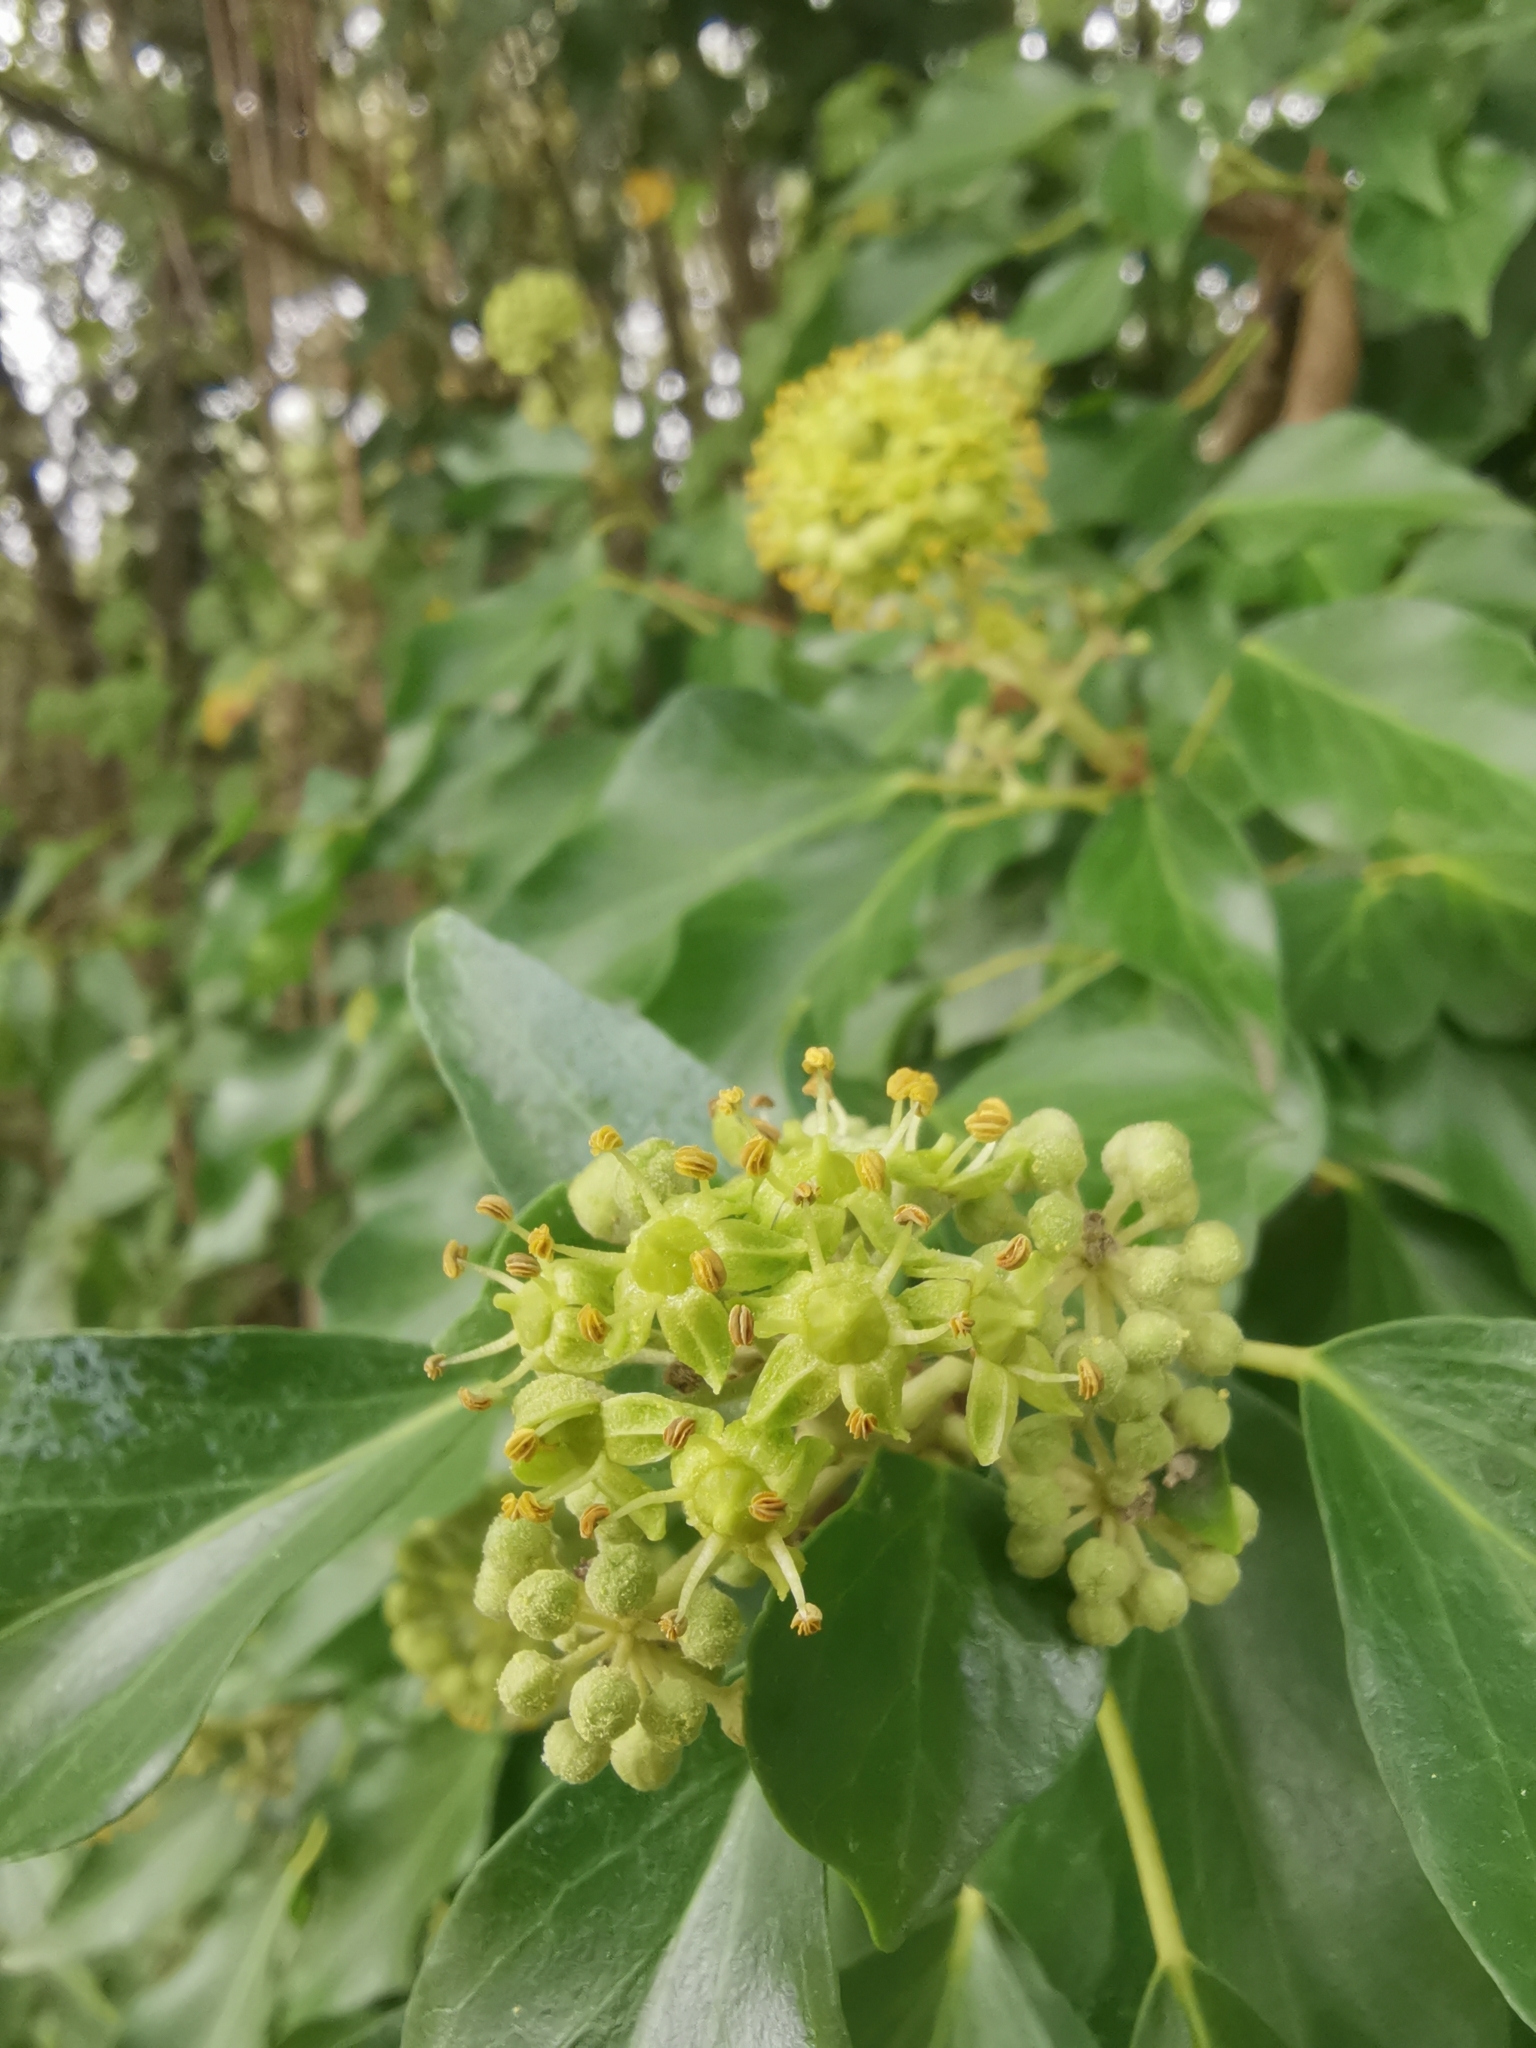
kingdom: Plantae
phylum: Tracheophyta
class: Magnoliopsida
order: Apiales
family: Araliaceae
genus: Hedera
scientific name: Hedera helix
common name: Ivy
